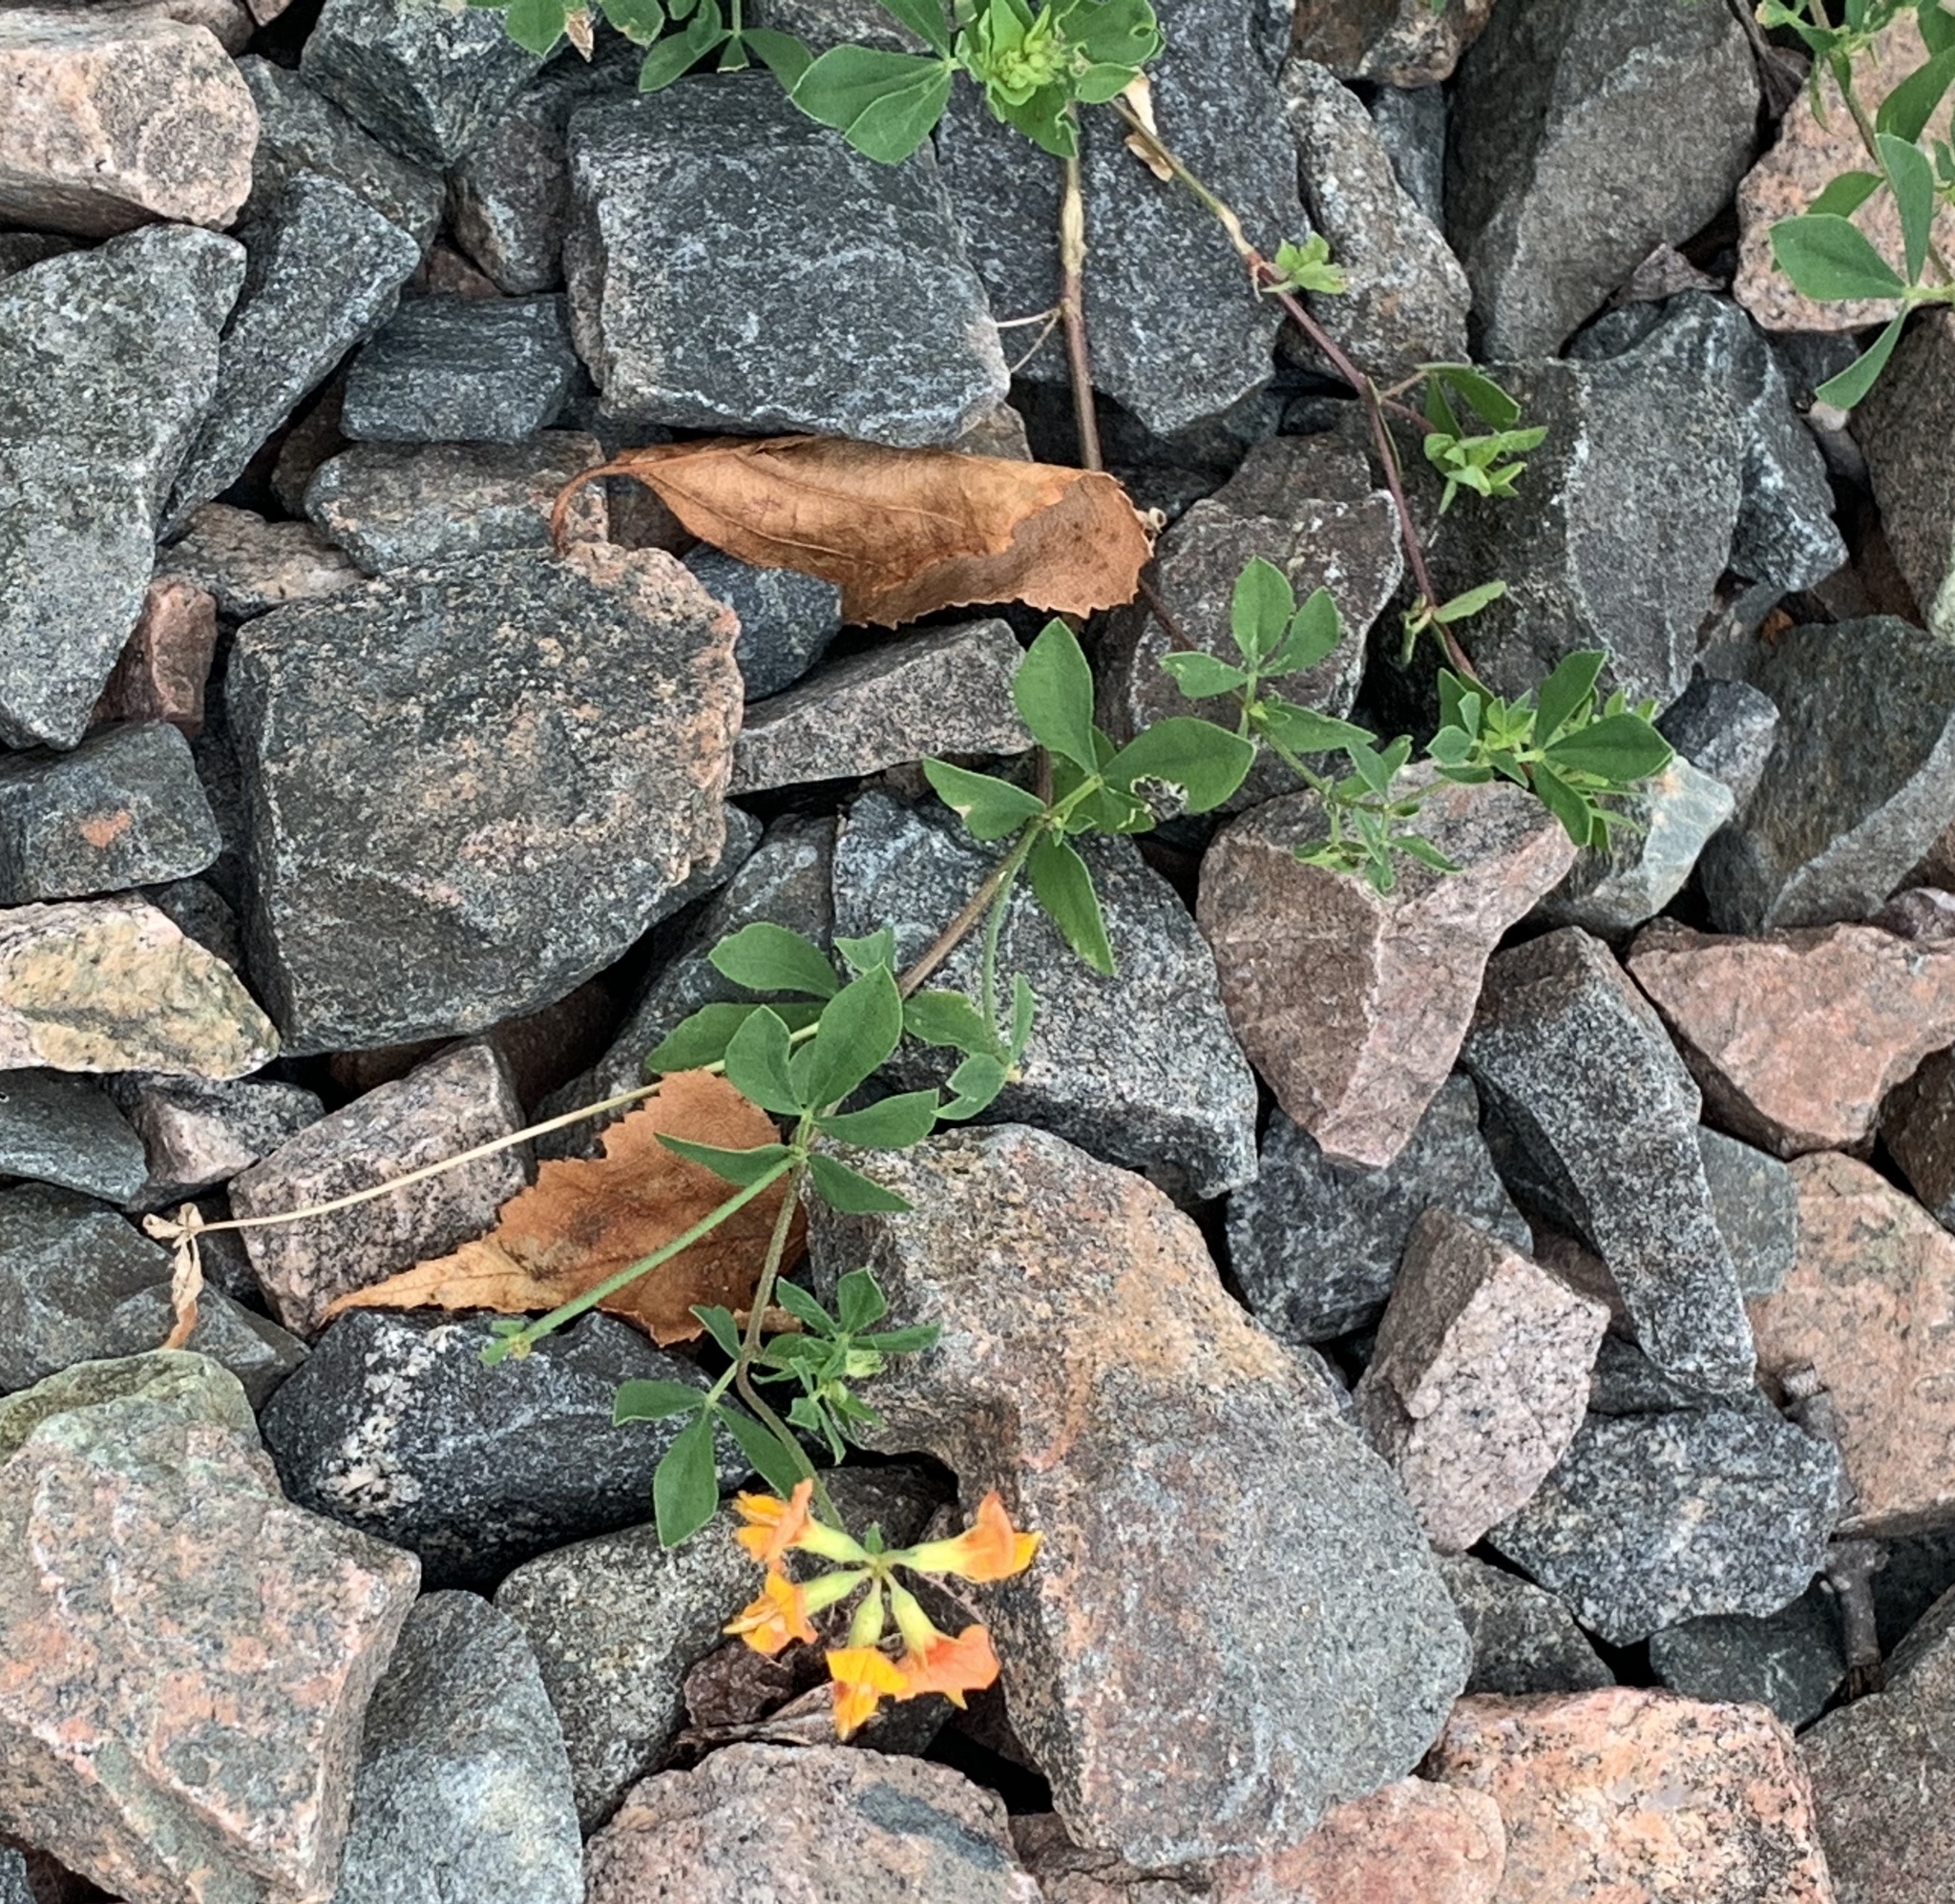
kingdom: Plantae
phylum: Tracheophyta
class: Magnoliopsida
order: Fabales
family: Fabaceae
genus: Lotus
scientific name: Lotus corniculatus
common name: Common bird's-foot-trefoil
